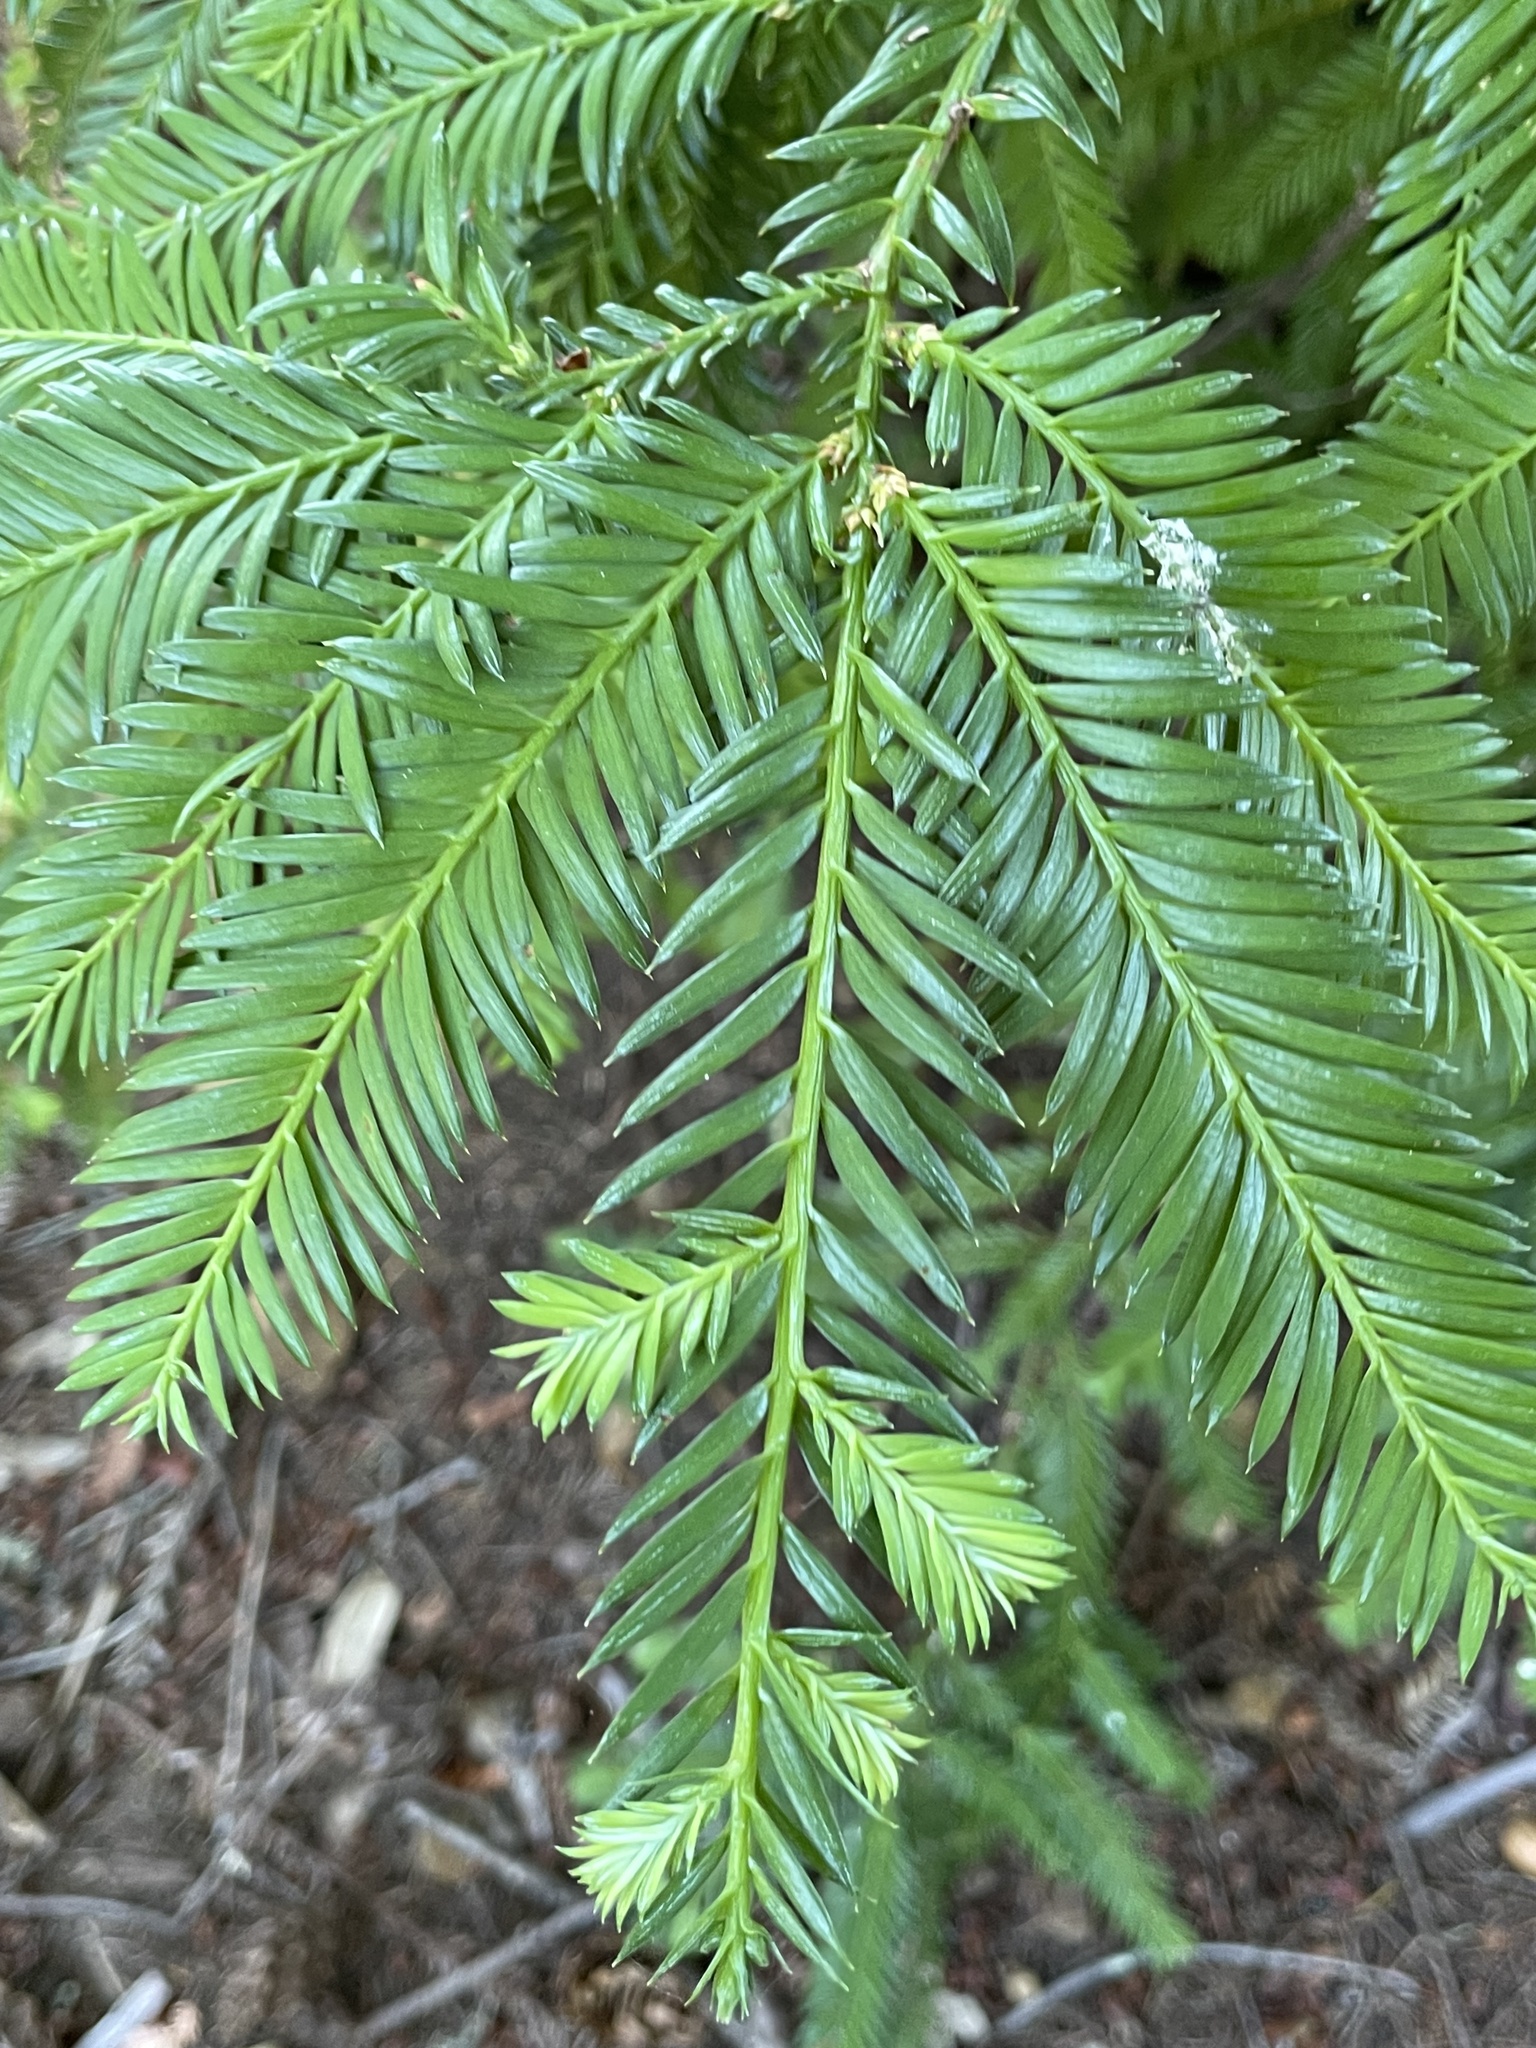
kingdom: Plantae
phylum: Tracheophyta
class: Pinopsida
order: Pinales
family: Cupressaceae
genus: Sequoia
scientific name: Sequoia sempervirens
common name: Coast redwood
